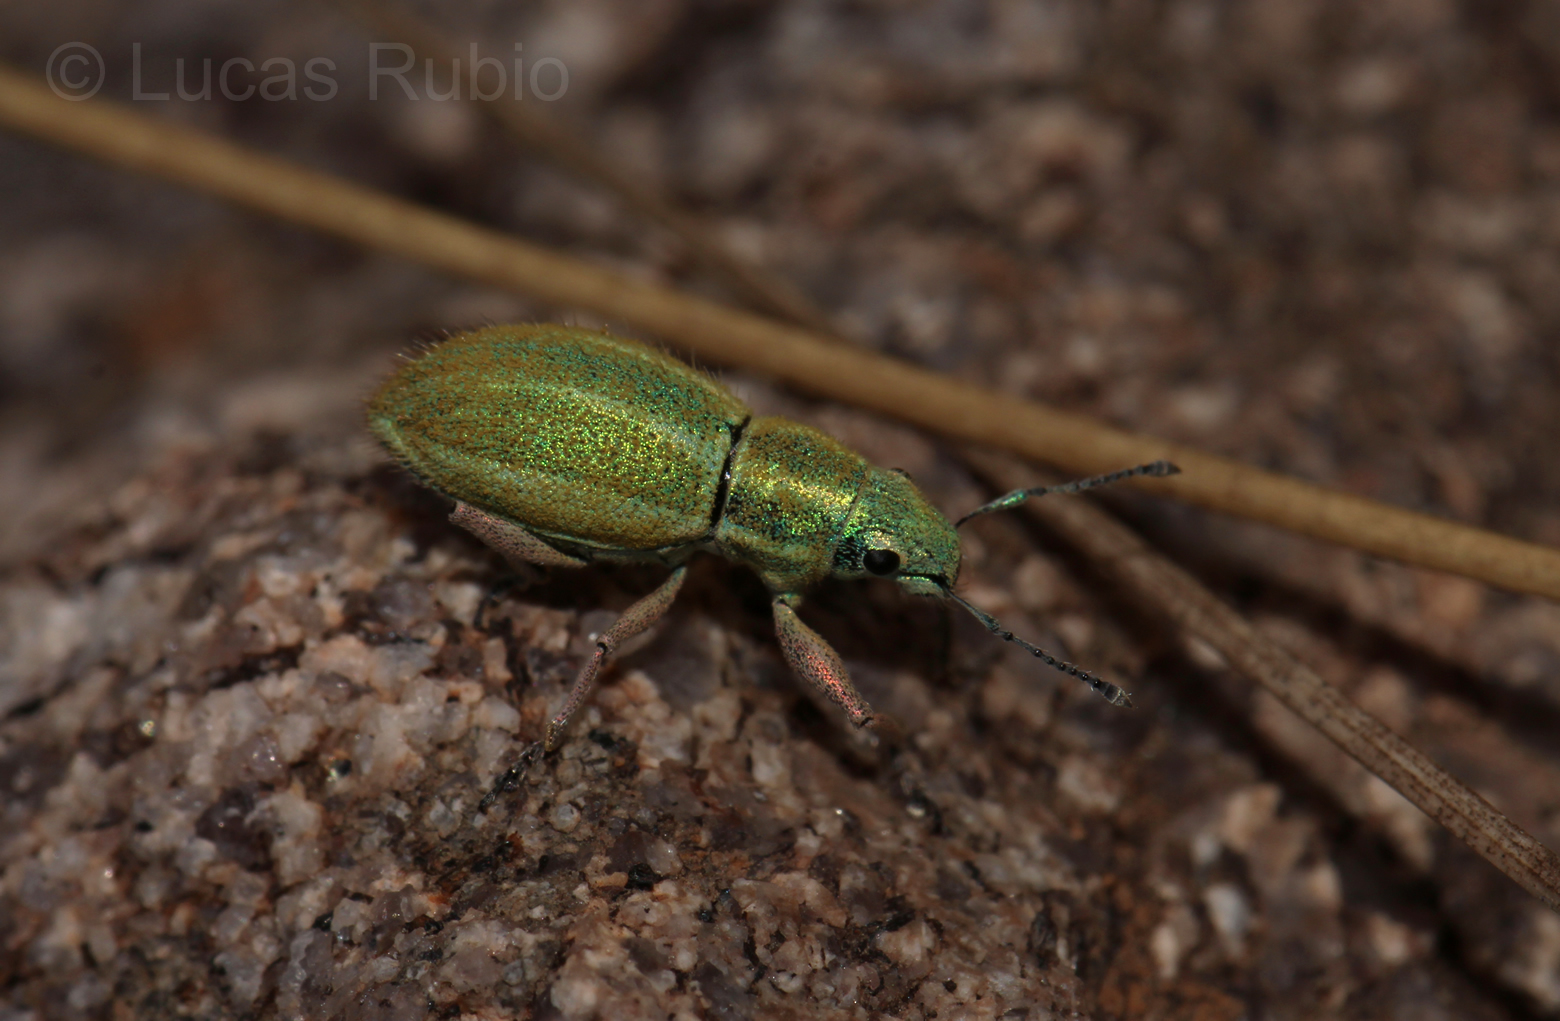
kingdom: Animalia
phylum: Arthropoda
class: Insecta
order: Coleoptera
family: Curculionidae
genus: Naupactus
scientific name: Naupactus auripes
